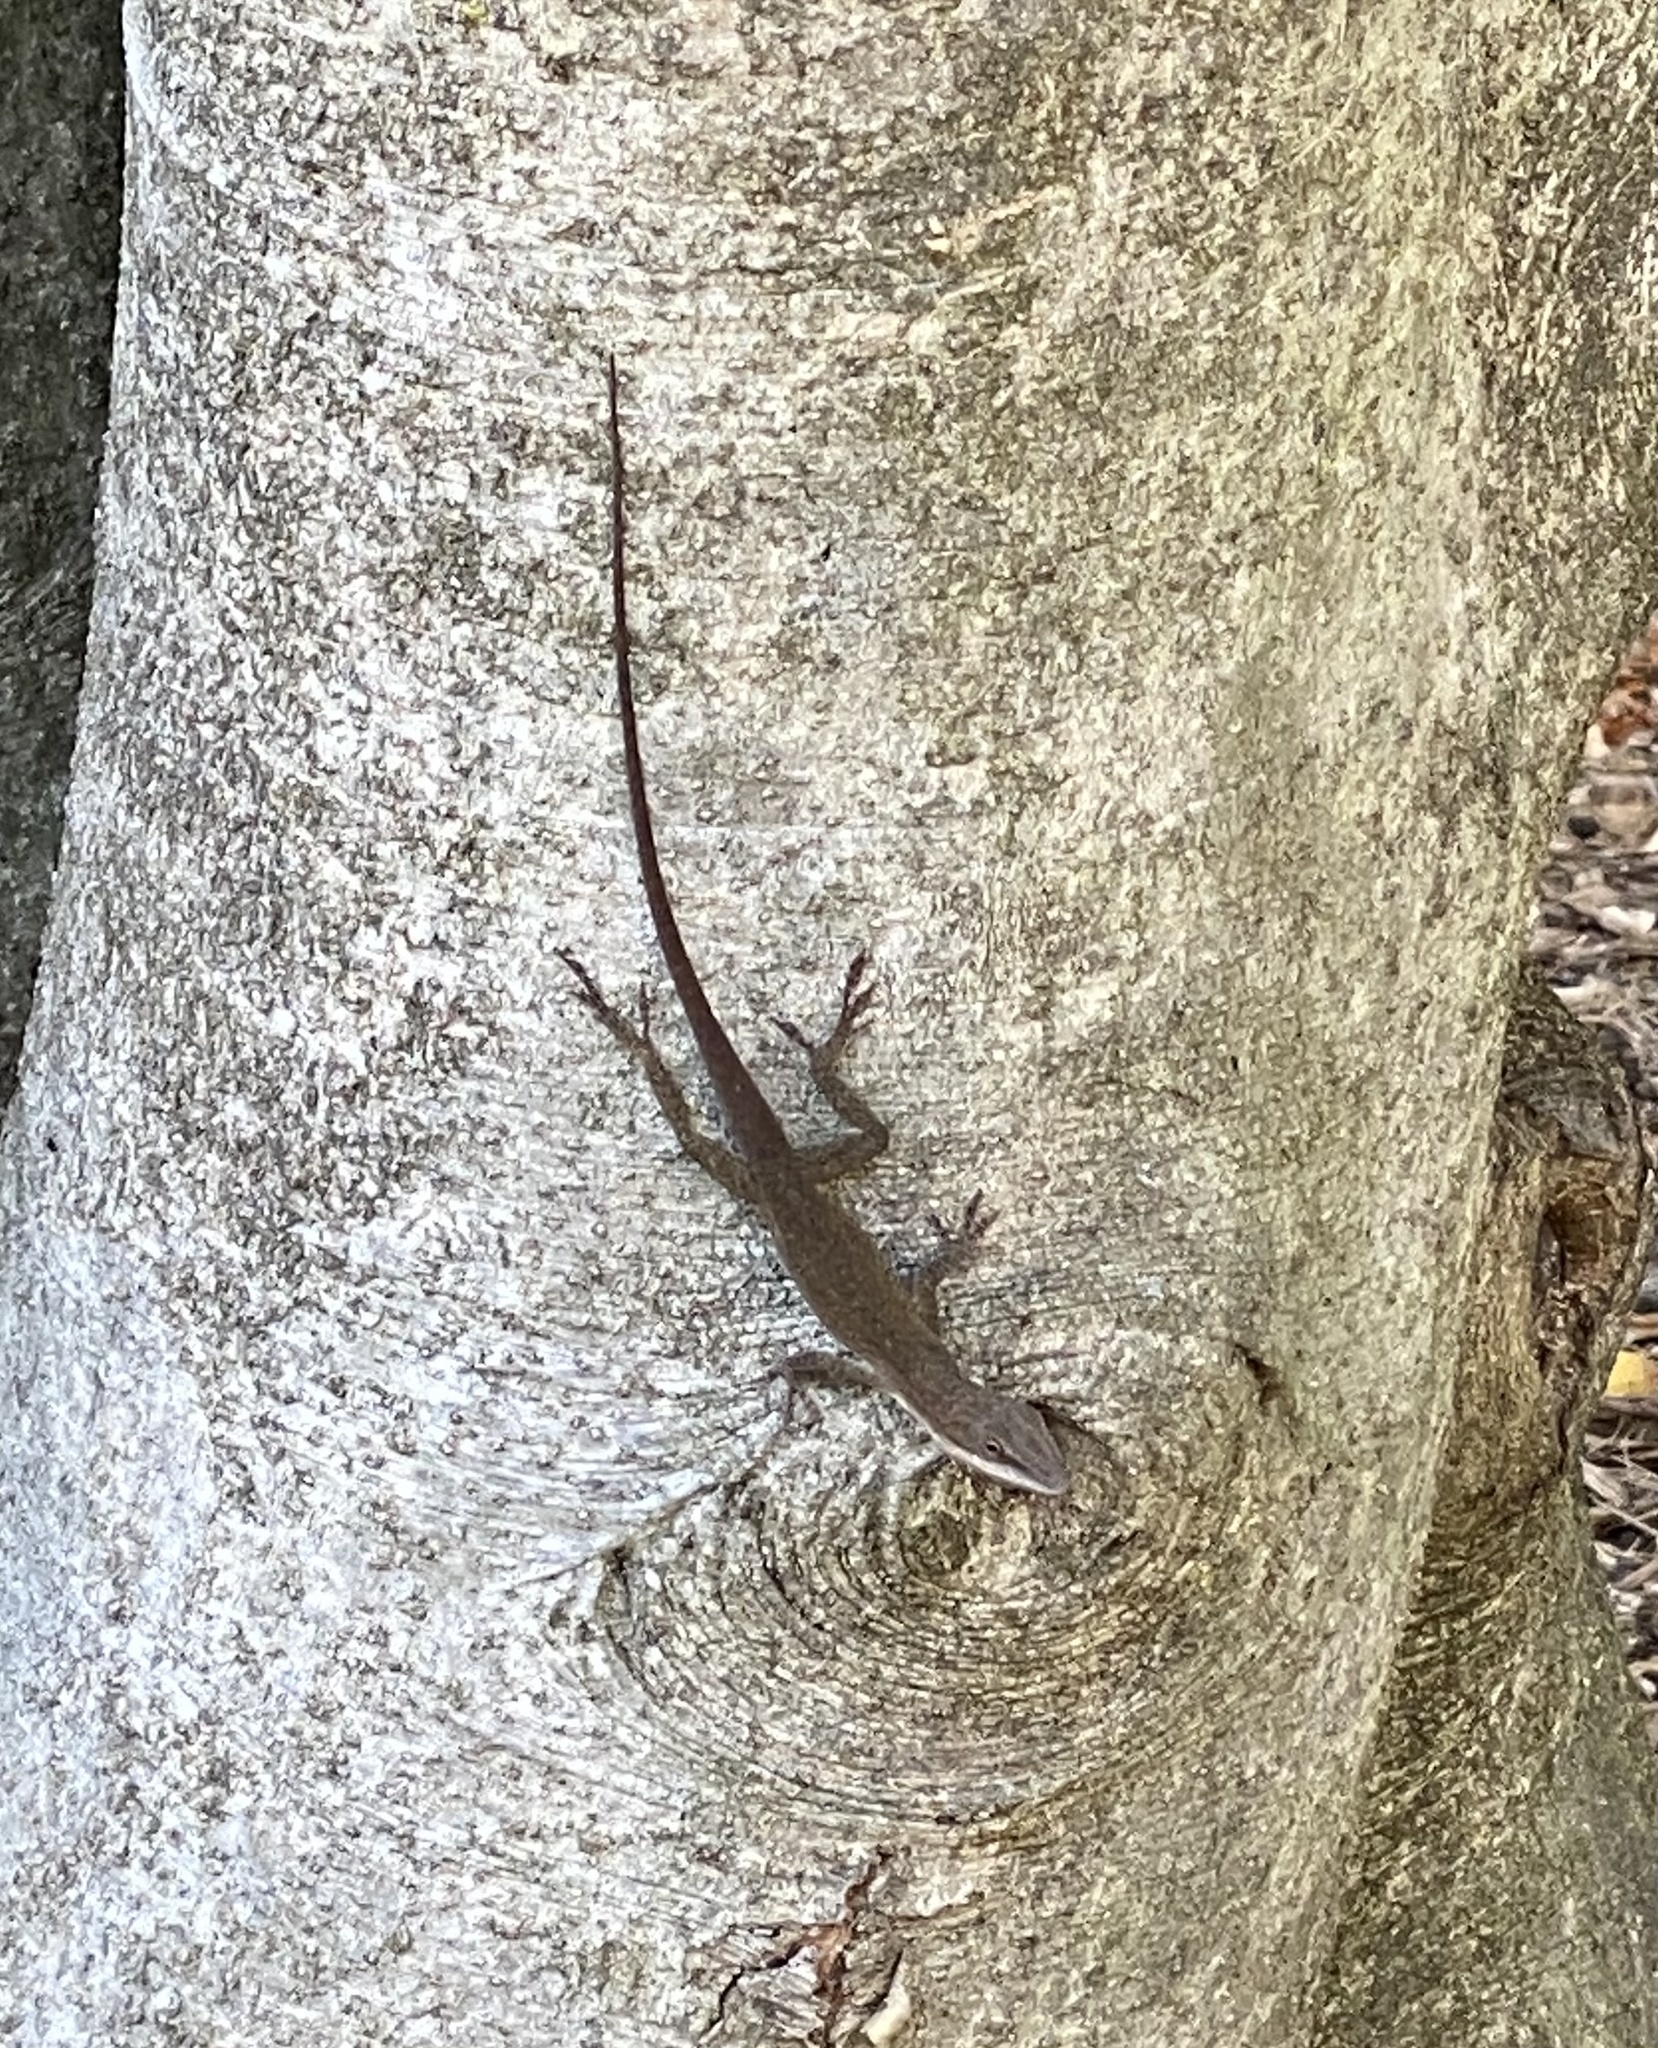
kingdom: Animalia
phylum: Chordata
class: Squamata
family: Dactyloidae
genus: Anolis
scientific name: Anolis carolinensis
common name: Green anole
